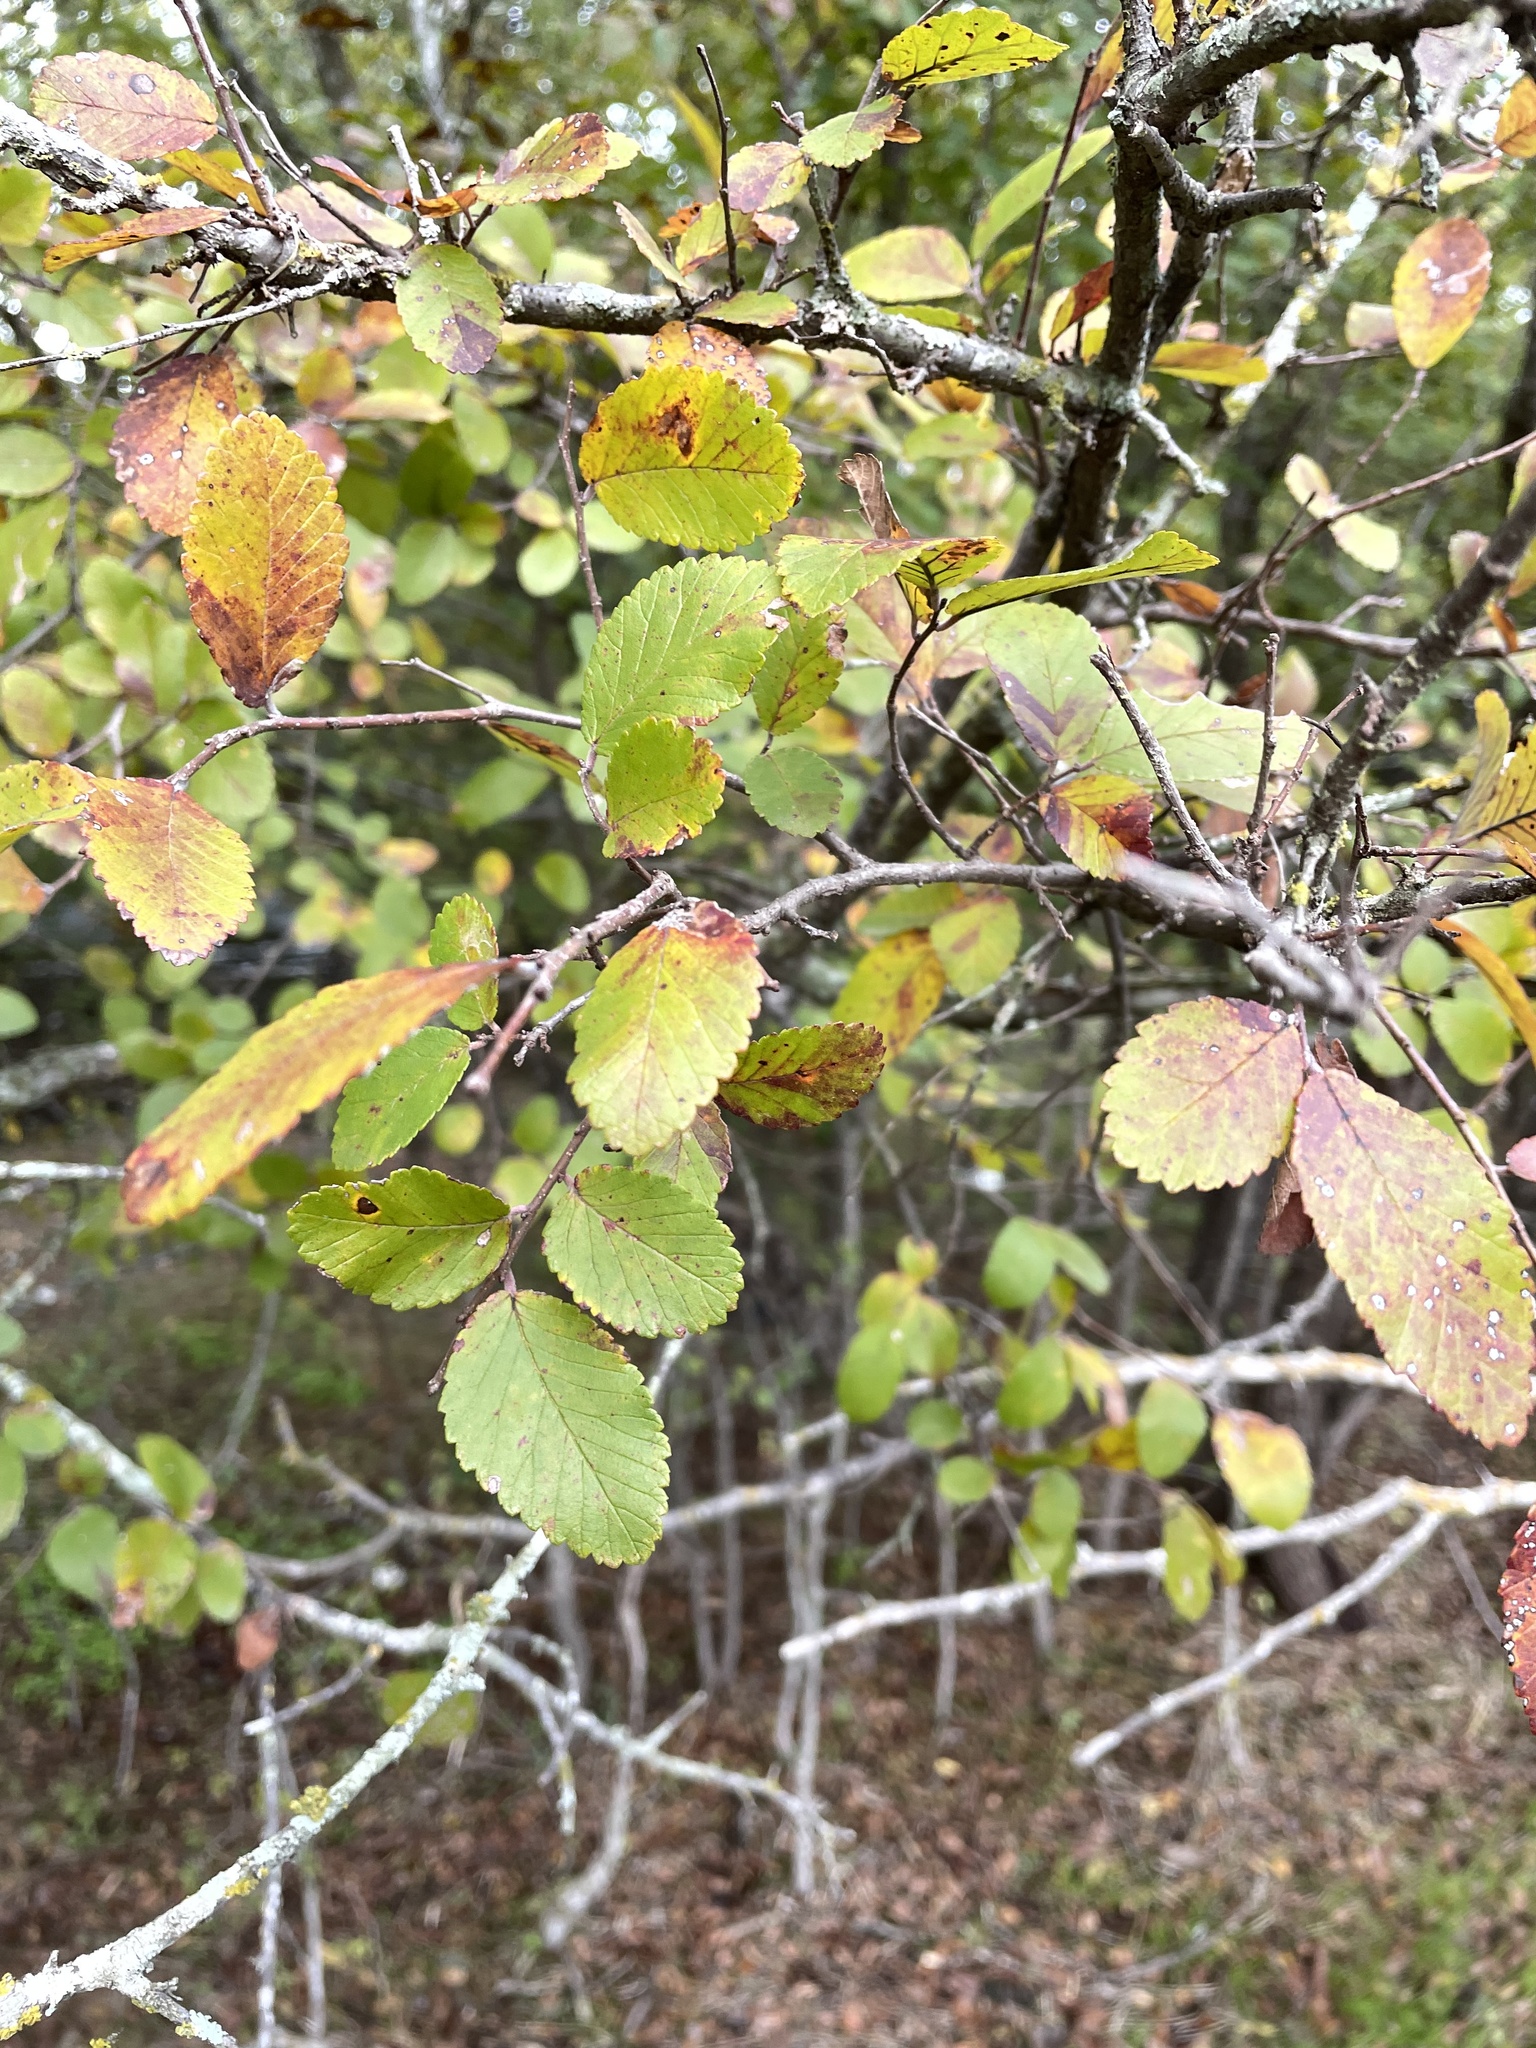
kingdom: Plantae
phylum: Tracheophyta
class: Magnoliopsida
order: Rosales
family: Ulmaceae
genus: Ulmus
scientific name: Ulmus crassifolia
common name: Basket elm
